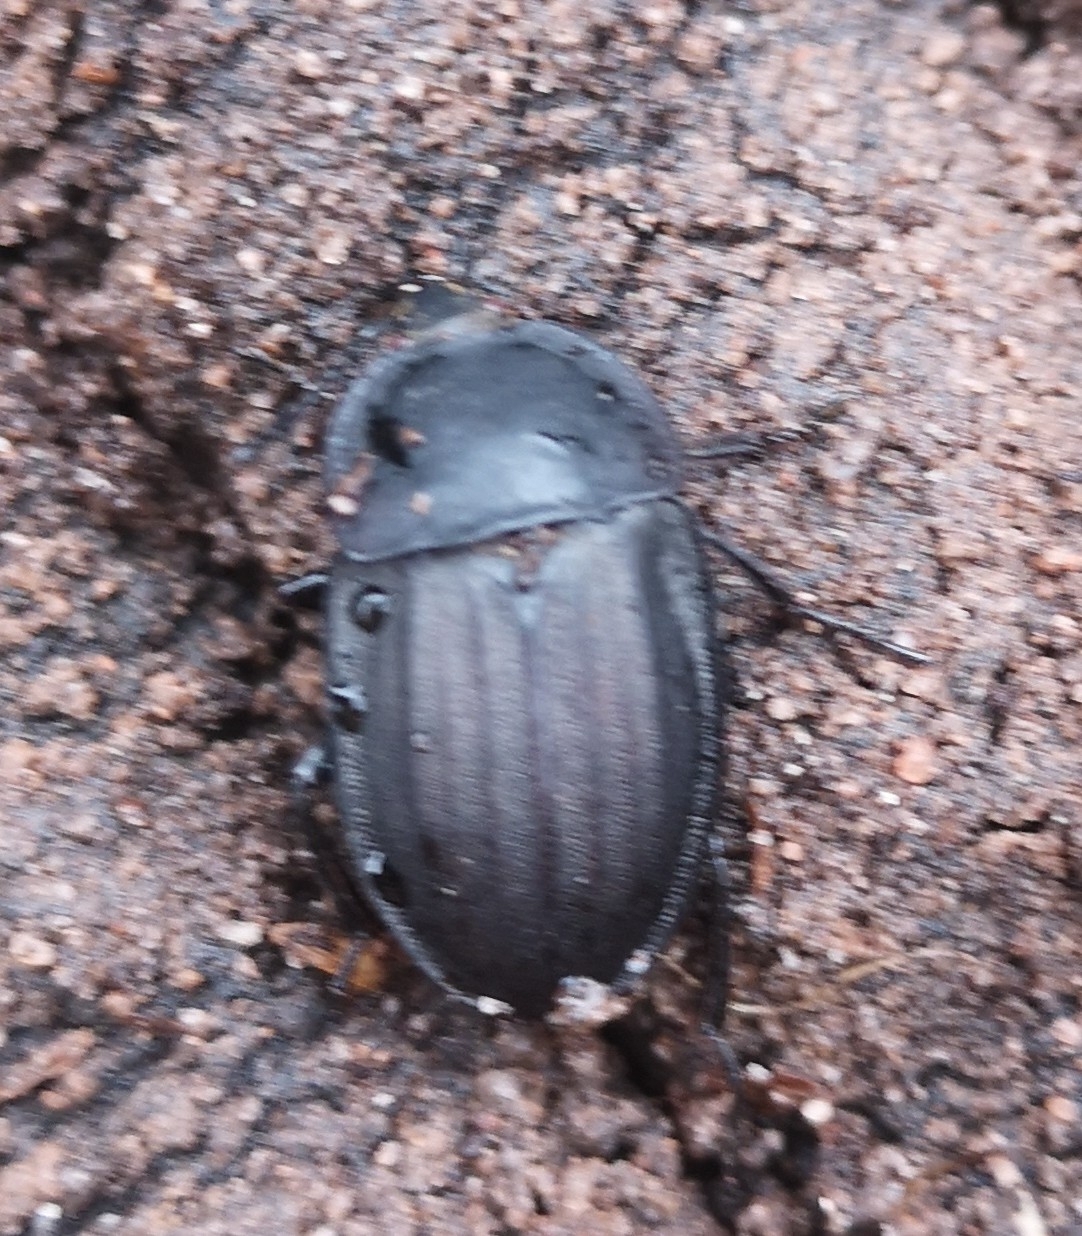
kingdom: Animalia
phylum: Arthropoda
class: Insecta
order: Coleoptera
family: Staphylinidae
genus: Silpha
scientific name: Silpha carinata
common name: Silphid beetle
